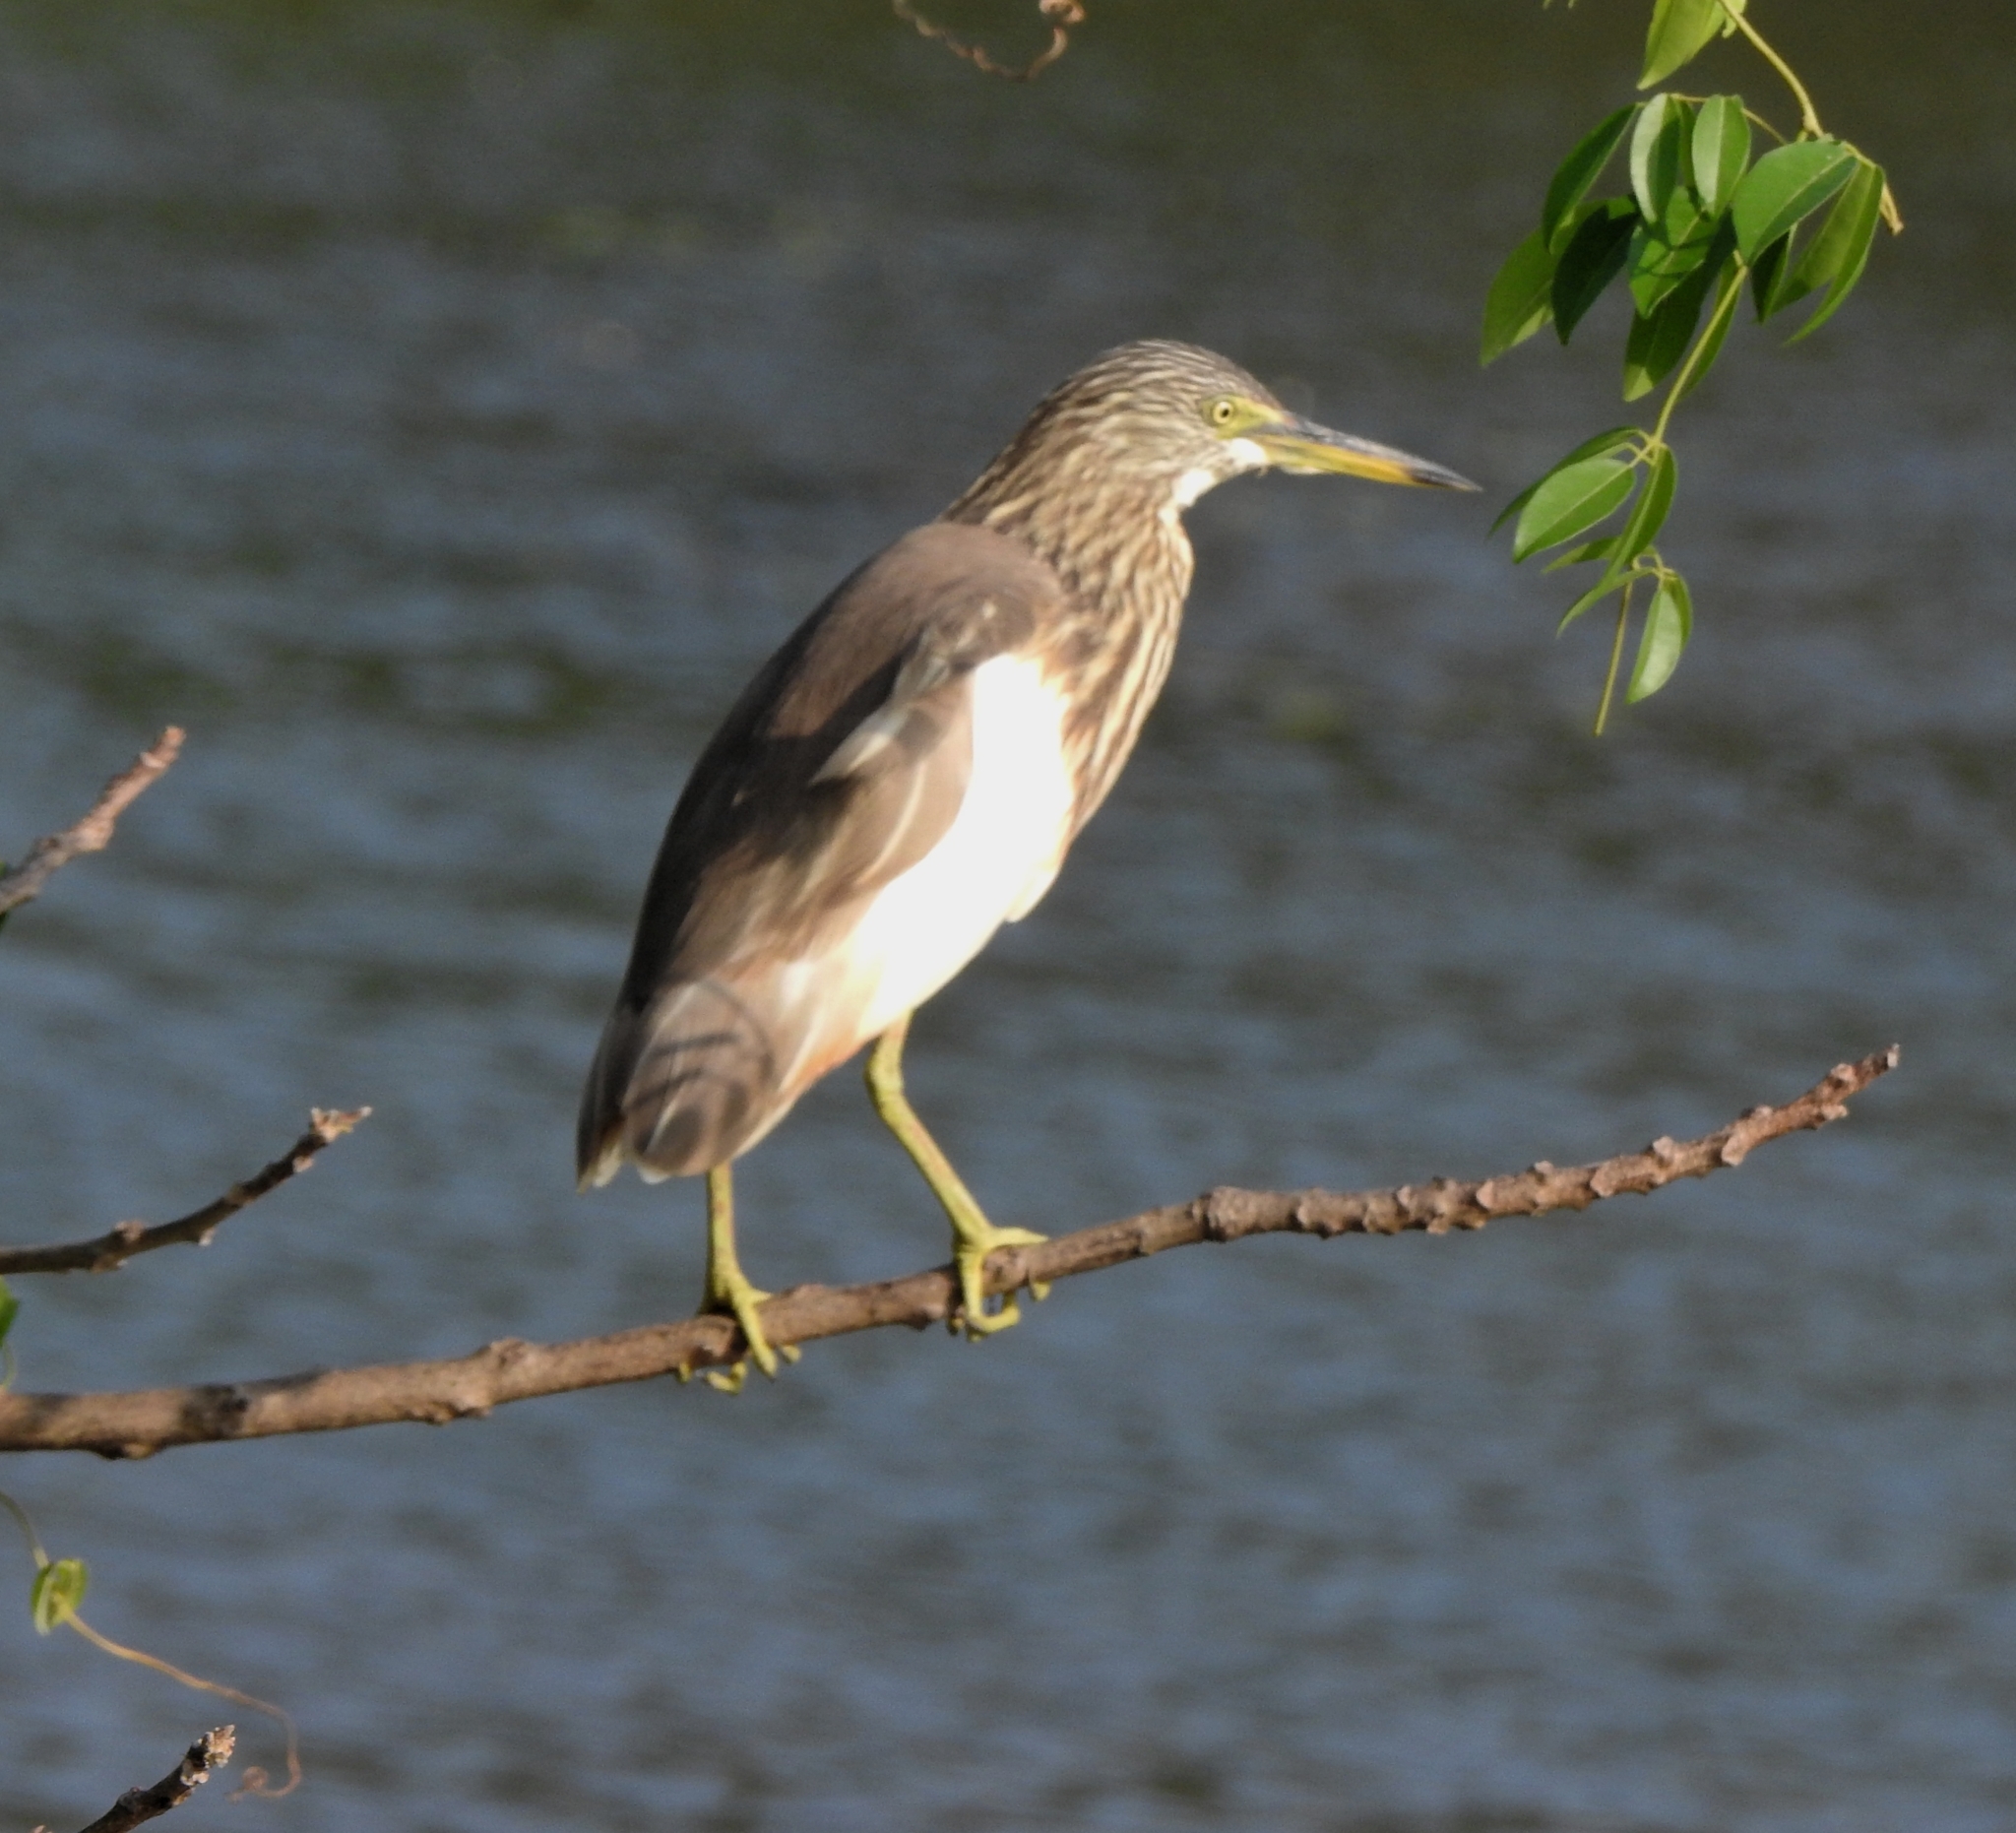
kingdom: Animalia
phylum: Chordata
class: Aves
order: Pelecaniformes
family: Ardeidae
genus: Ardeola
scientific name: Ardeola grayii
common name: Indian pond heron
